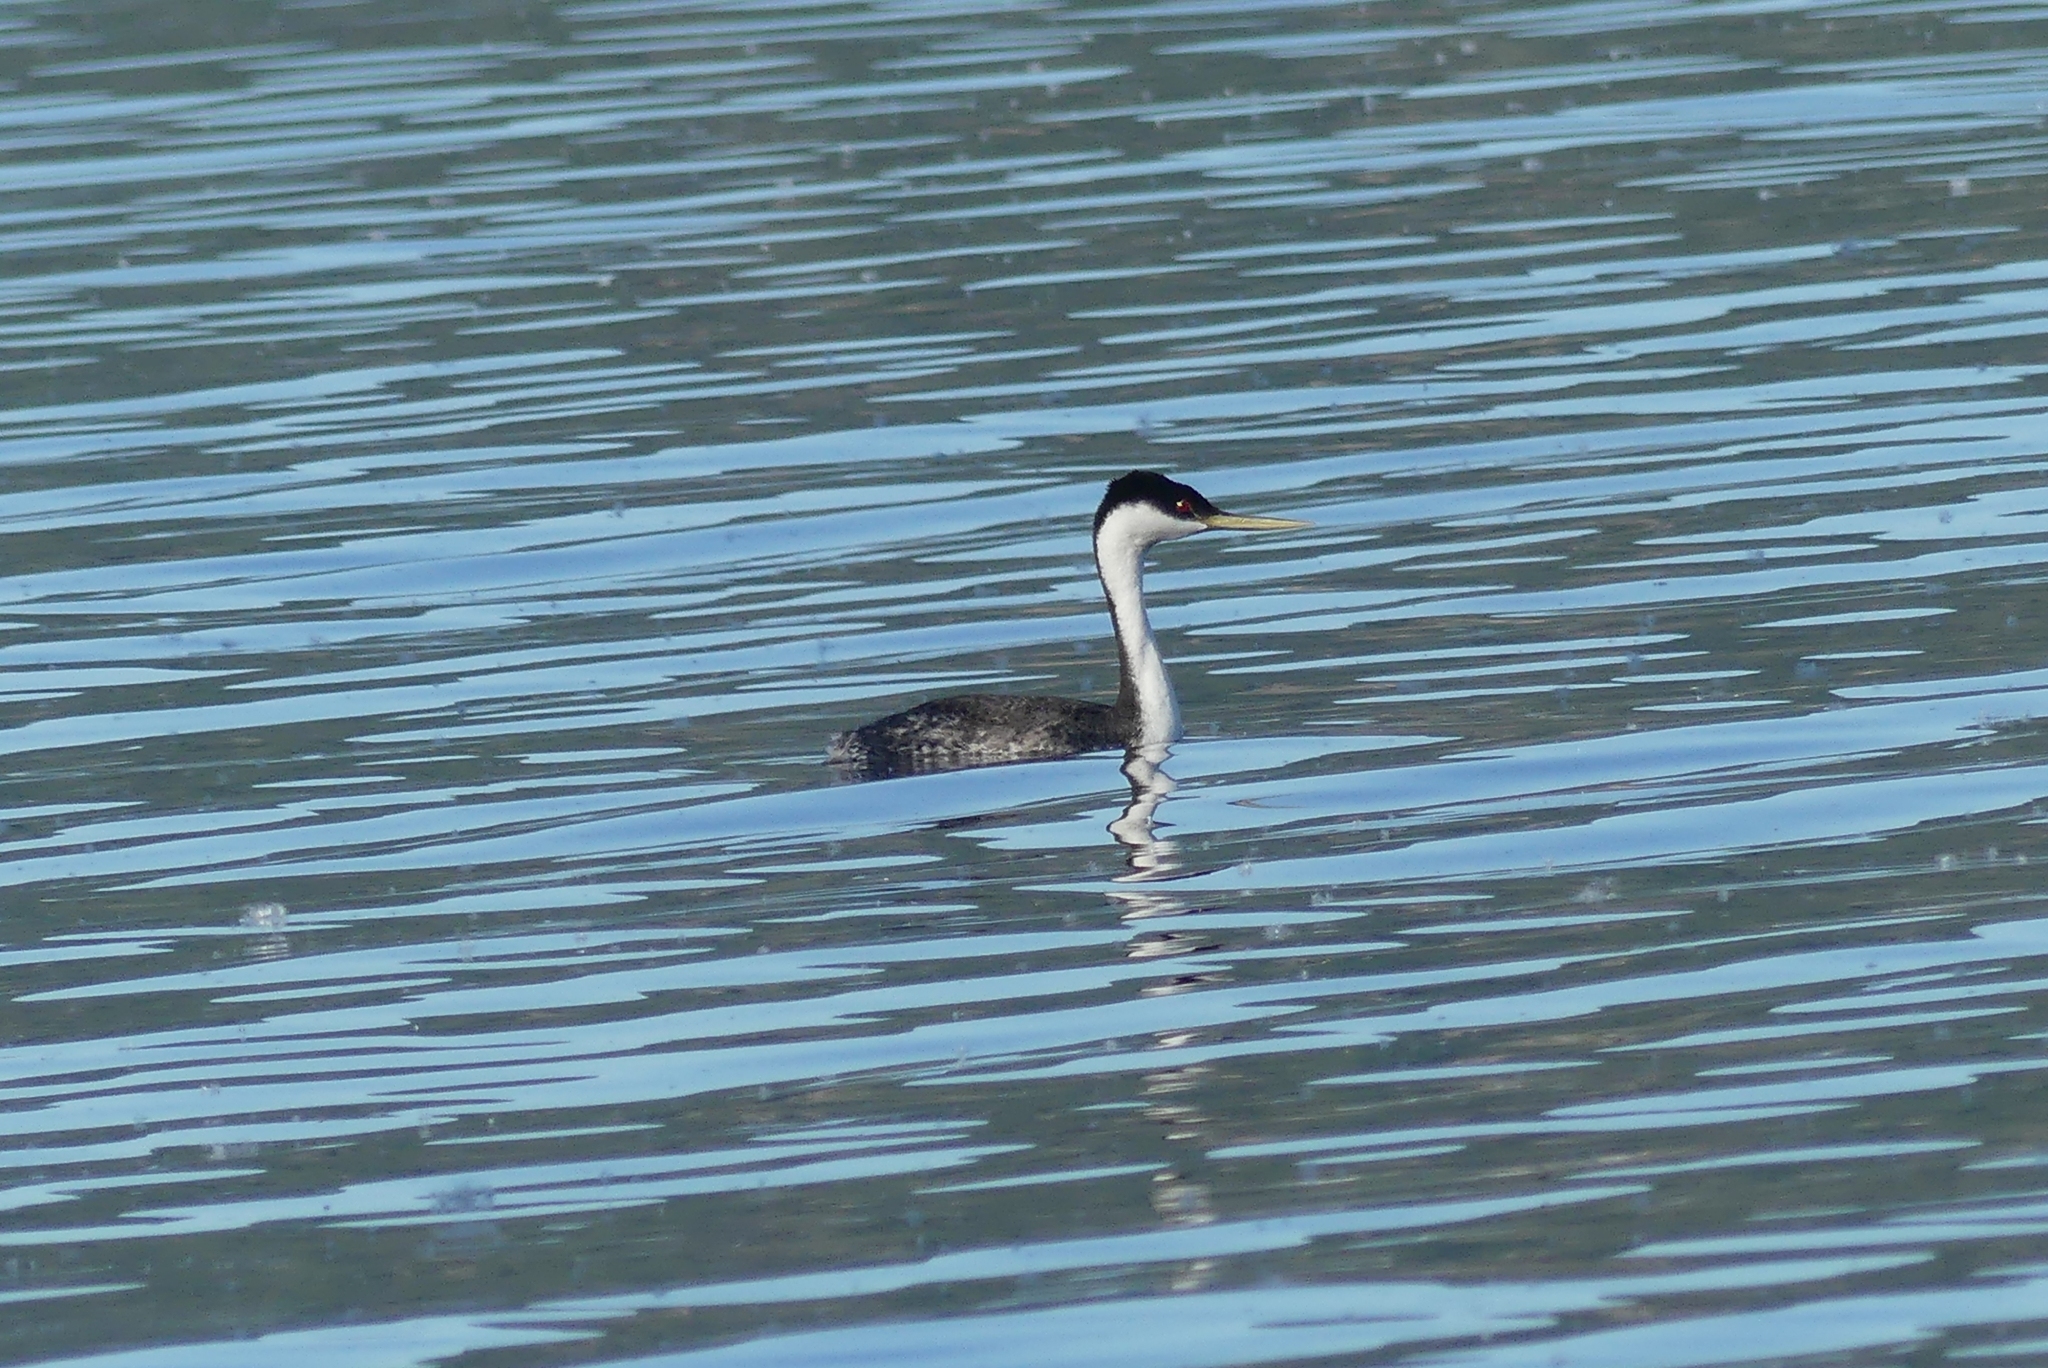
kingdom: Animalia
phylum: Chordata
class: Aves
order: Podicipediformes
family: Podicipedidae
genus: Aechmophorus
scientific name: Aechmophorus occidentalis
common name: Western grebe
